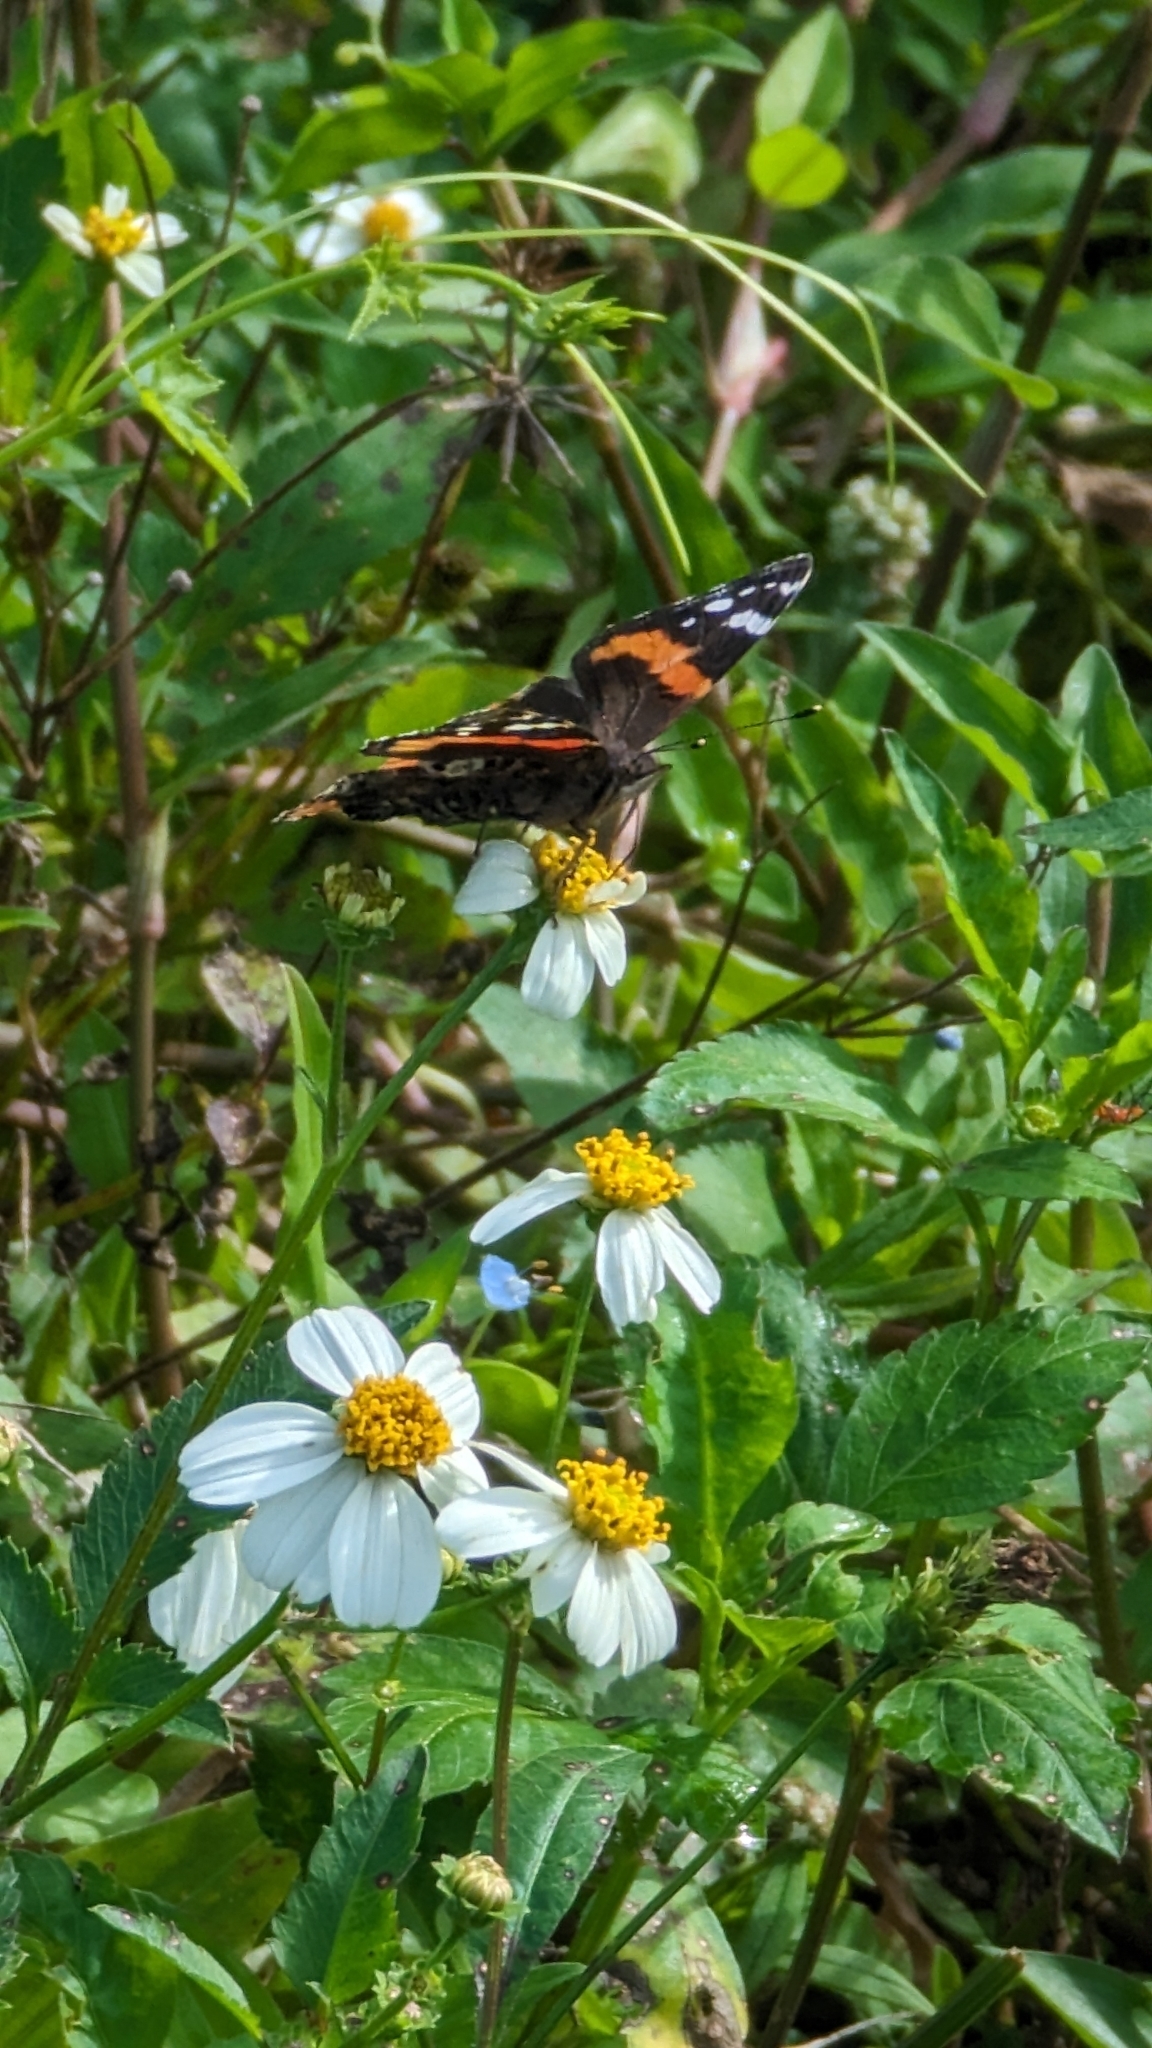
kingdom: Animalia
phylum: Arthropoda
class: Insecta
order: Lepidoptera
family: Nymphalidae
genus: Vanessa
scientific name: Vanessa atalanta
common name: Red admiral
